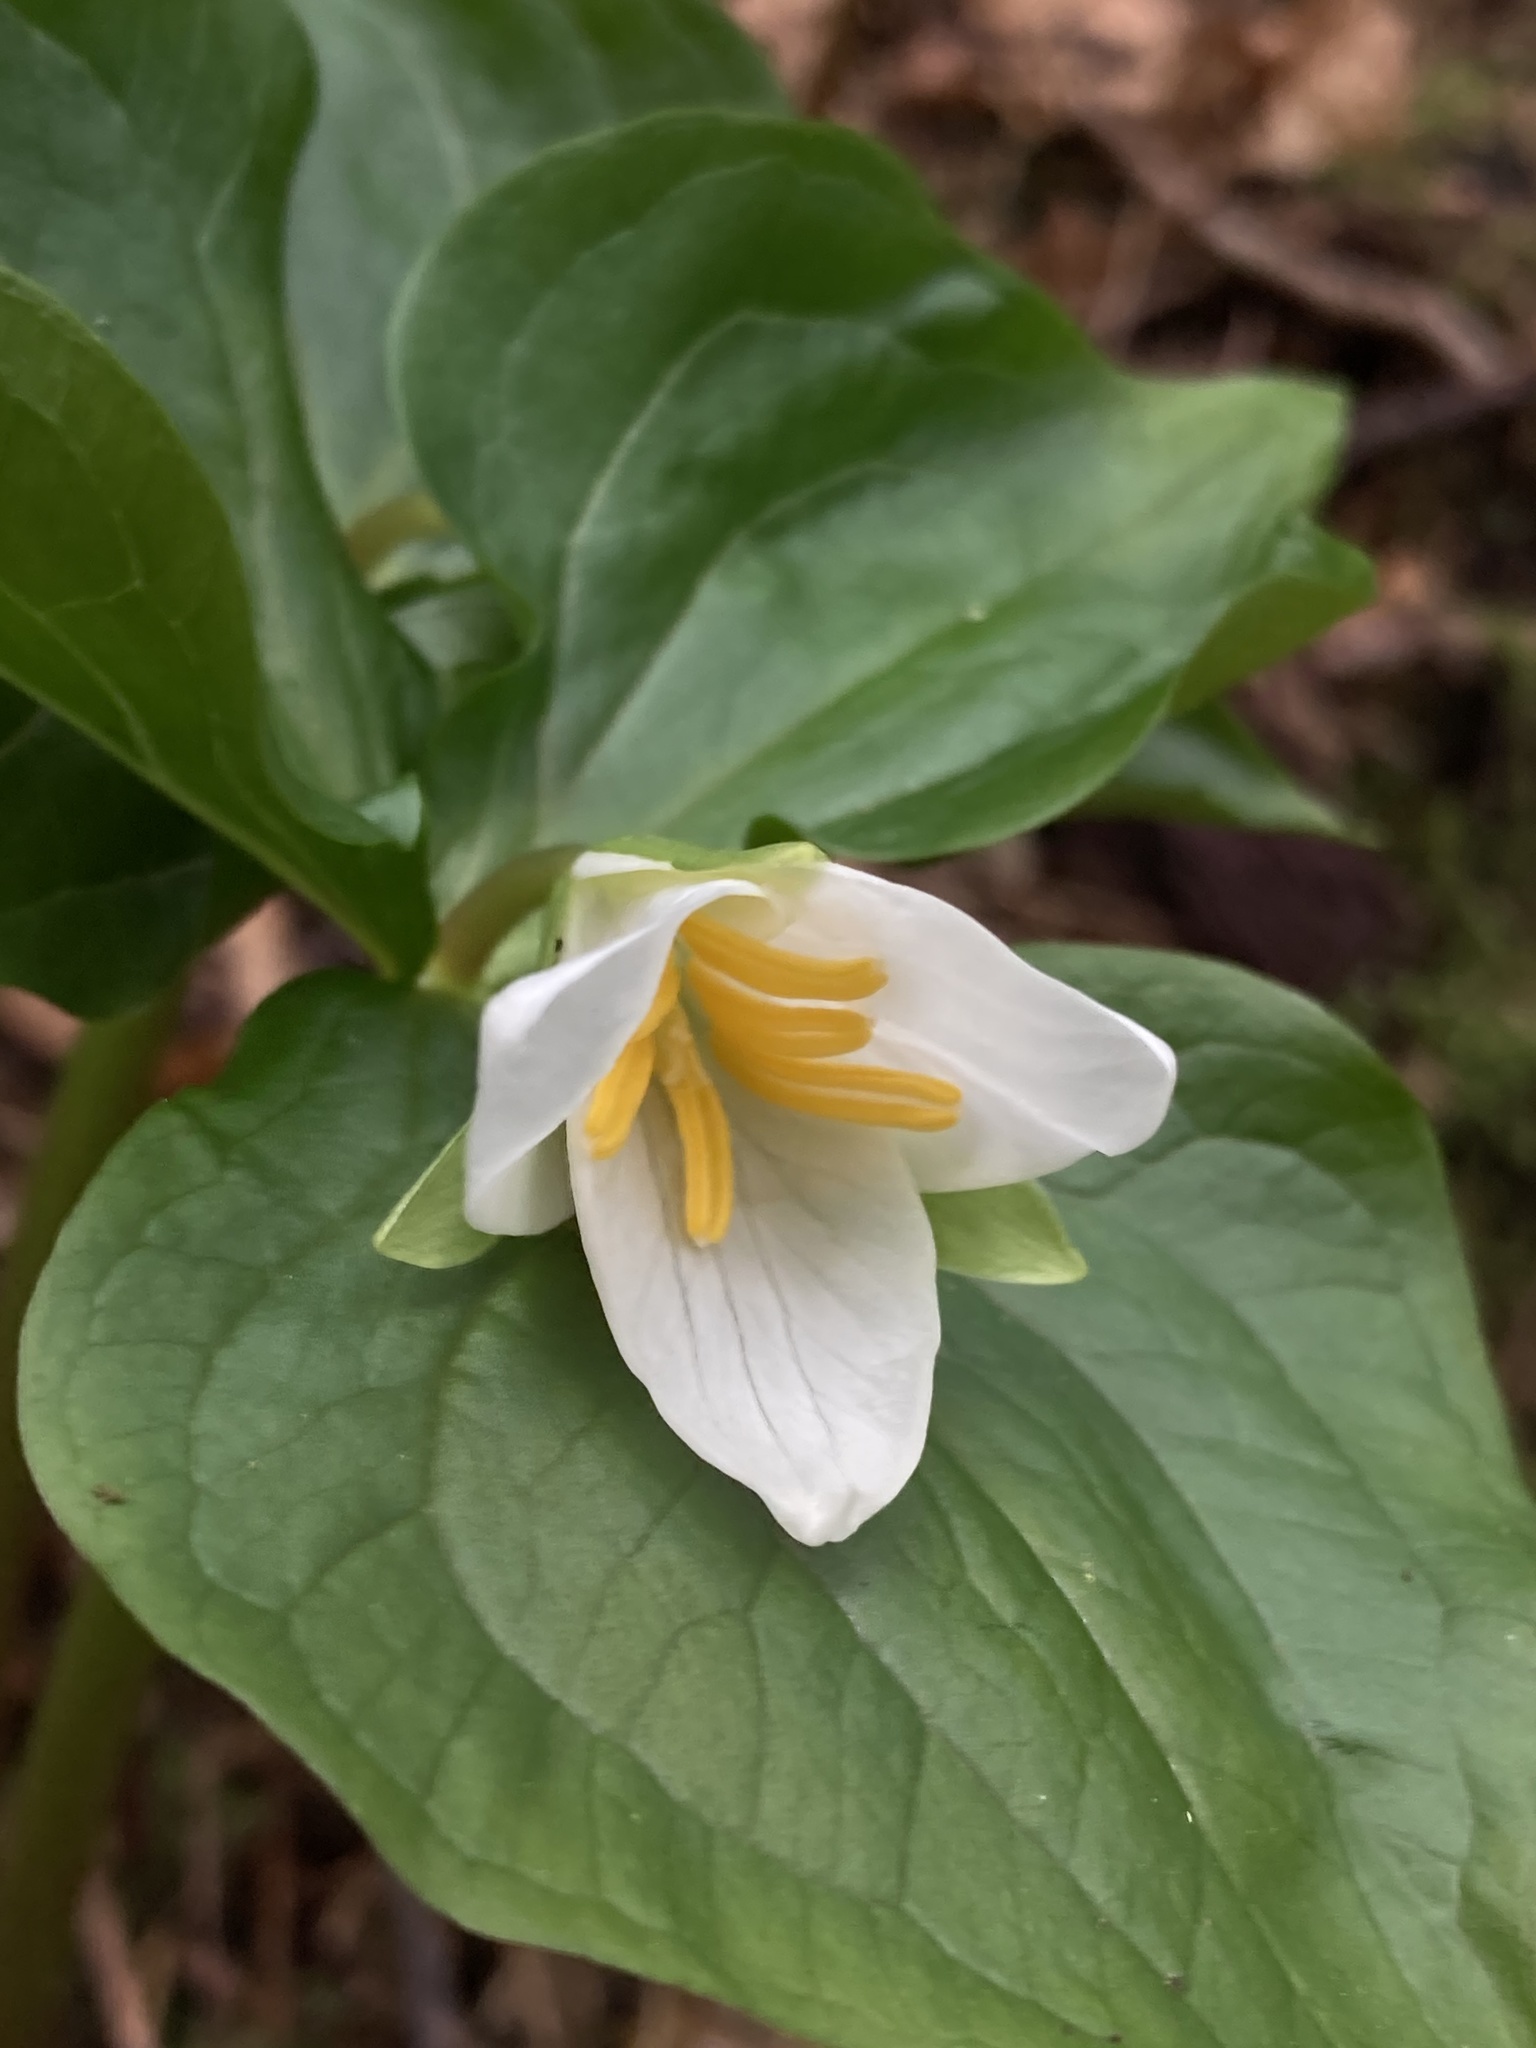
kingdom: Plantae
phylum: Tracheophyta
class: Liliopsida
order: Liliales
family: Melanthiaceae
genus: Trillium
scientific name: Trillium ovatum
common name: Pacific trillium
